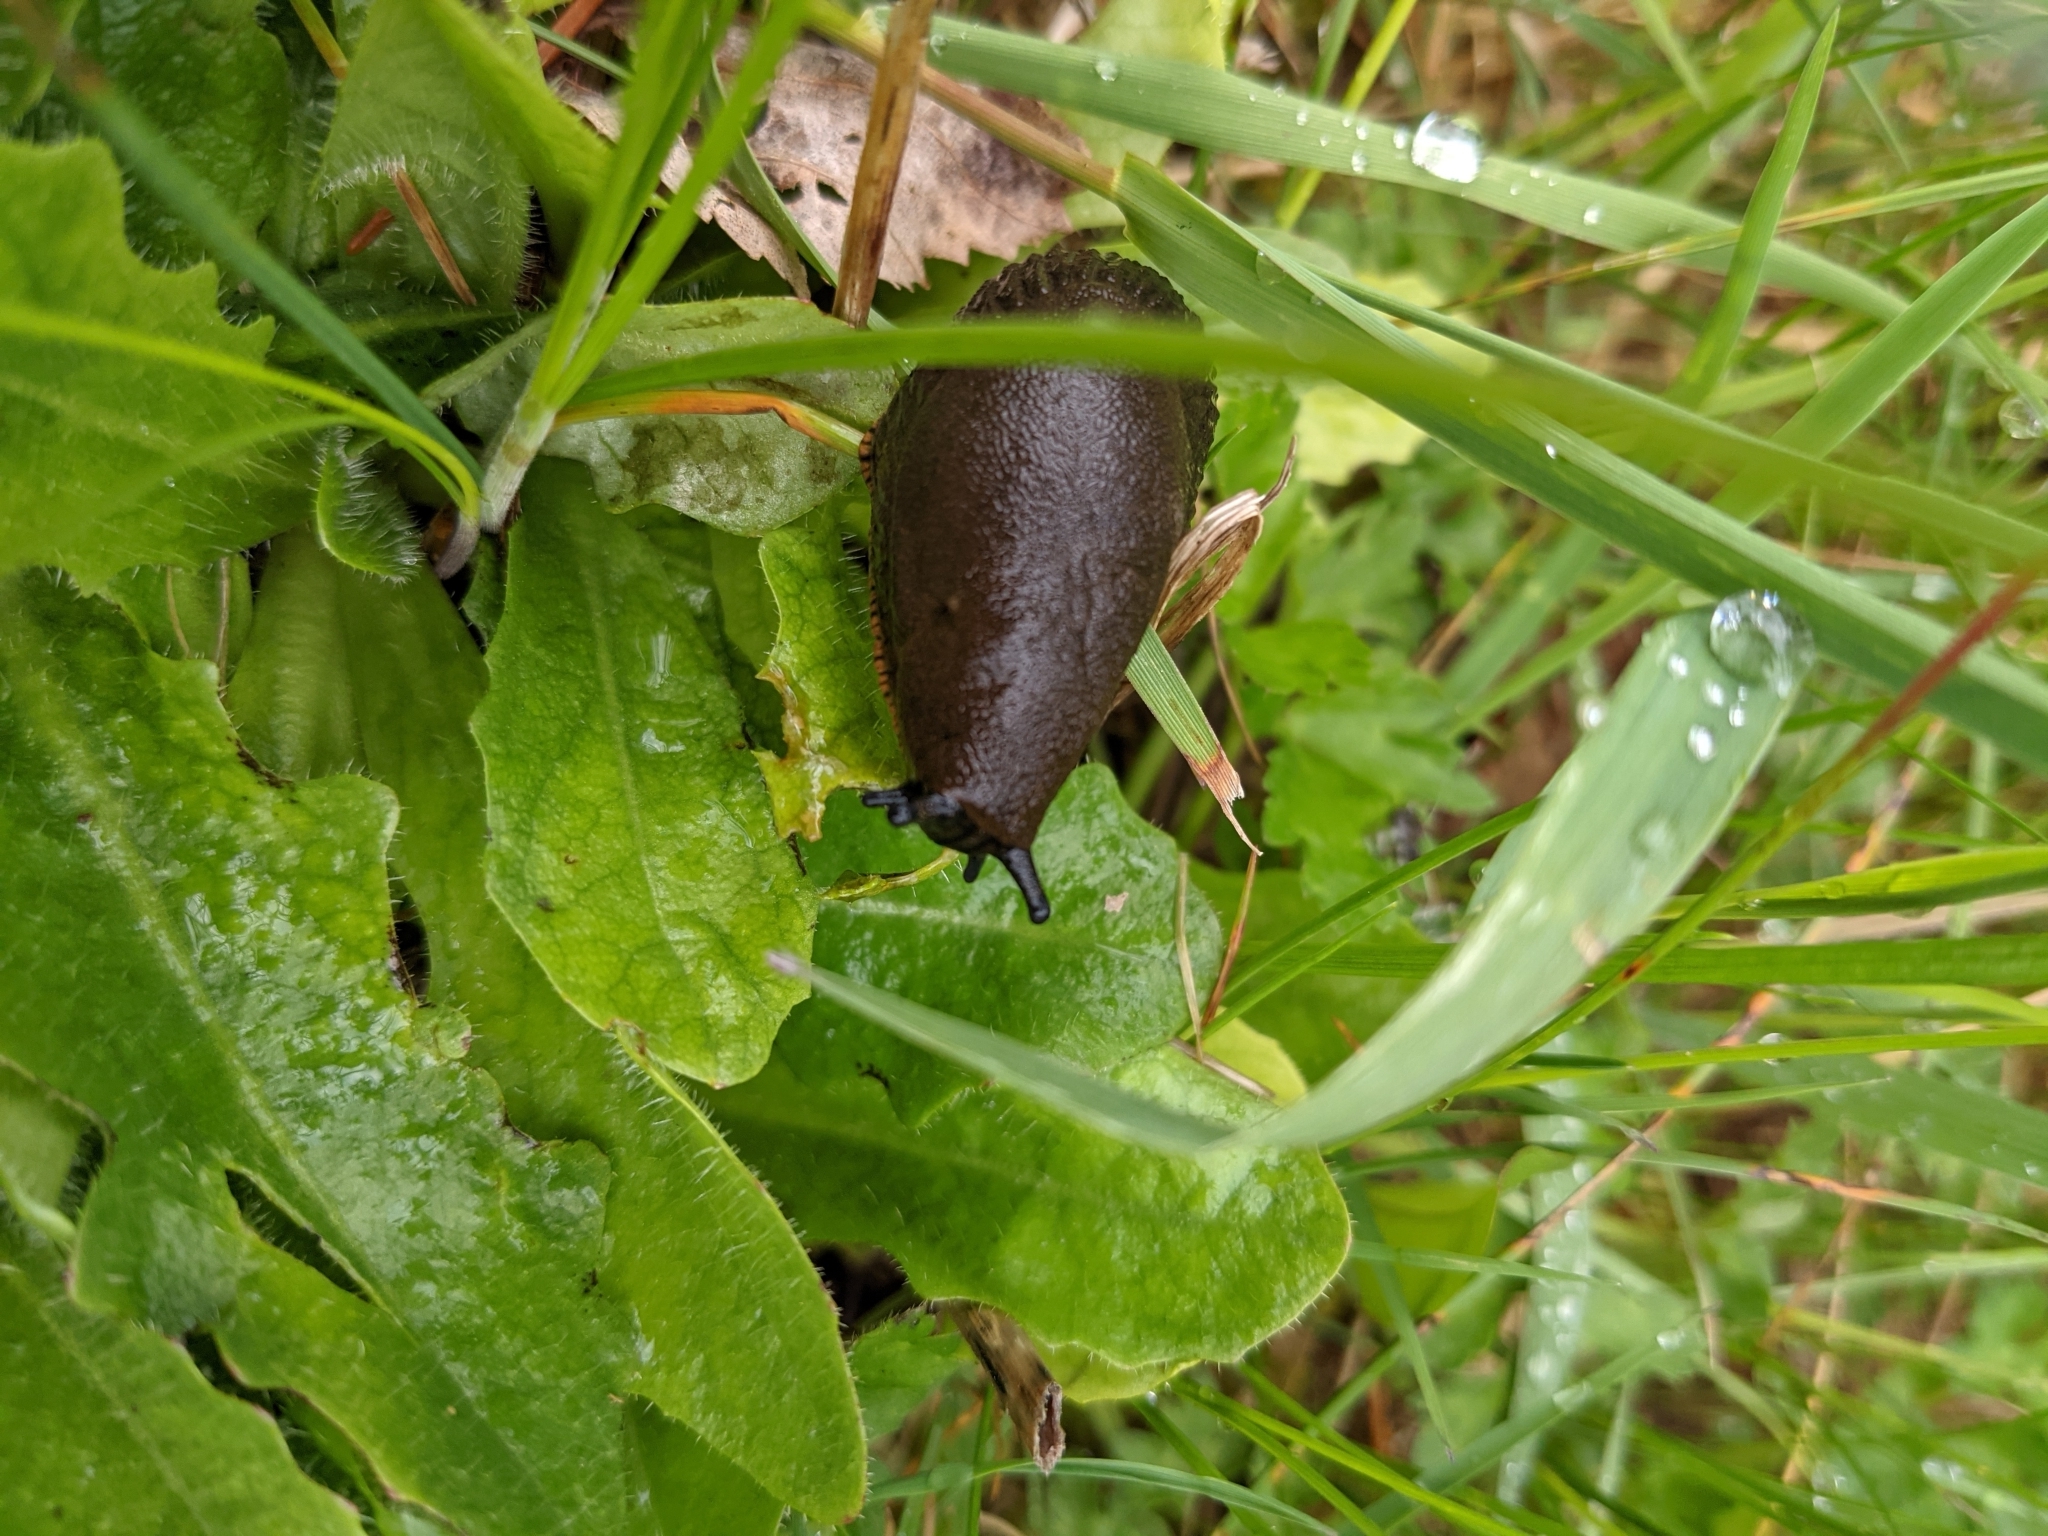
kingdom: Animalia
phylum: Mollusca
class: Gastropoda
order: Stylommatophora
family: Arionidae
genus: Arion
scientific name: Arion rufus
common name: Chocolate arion
